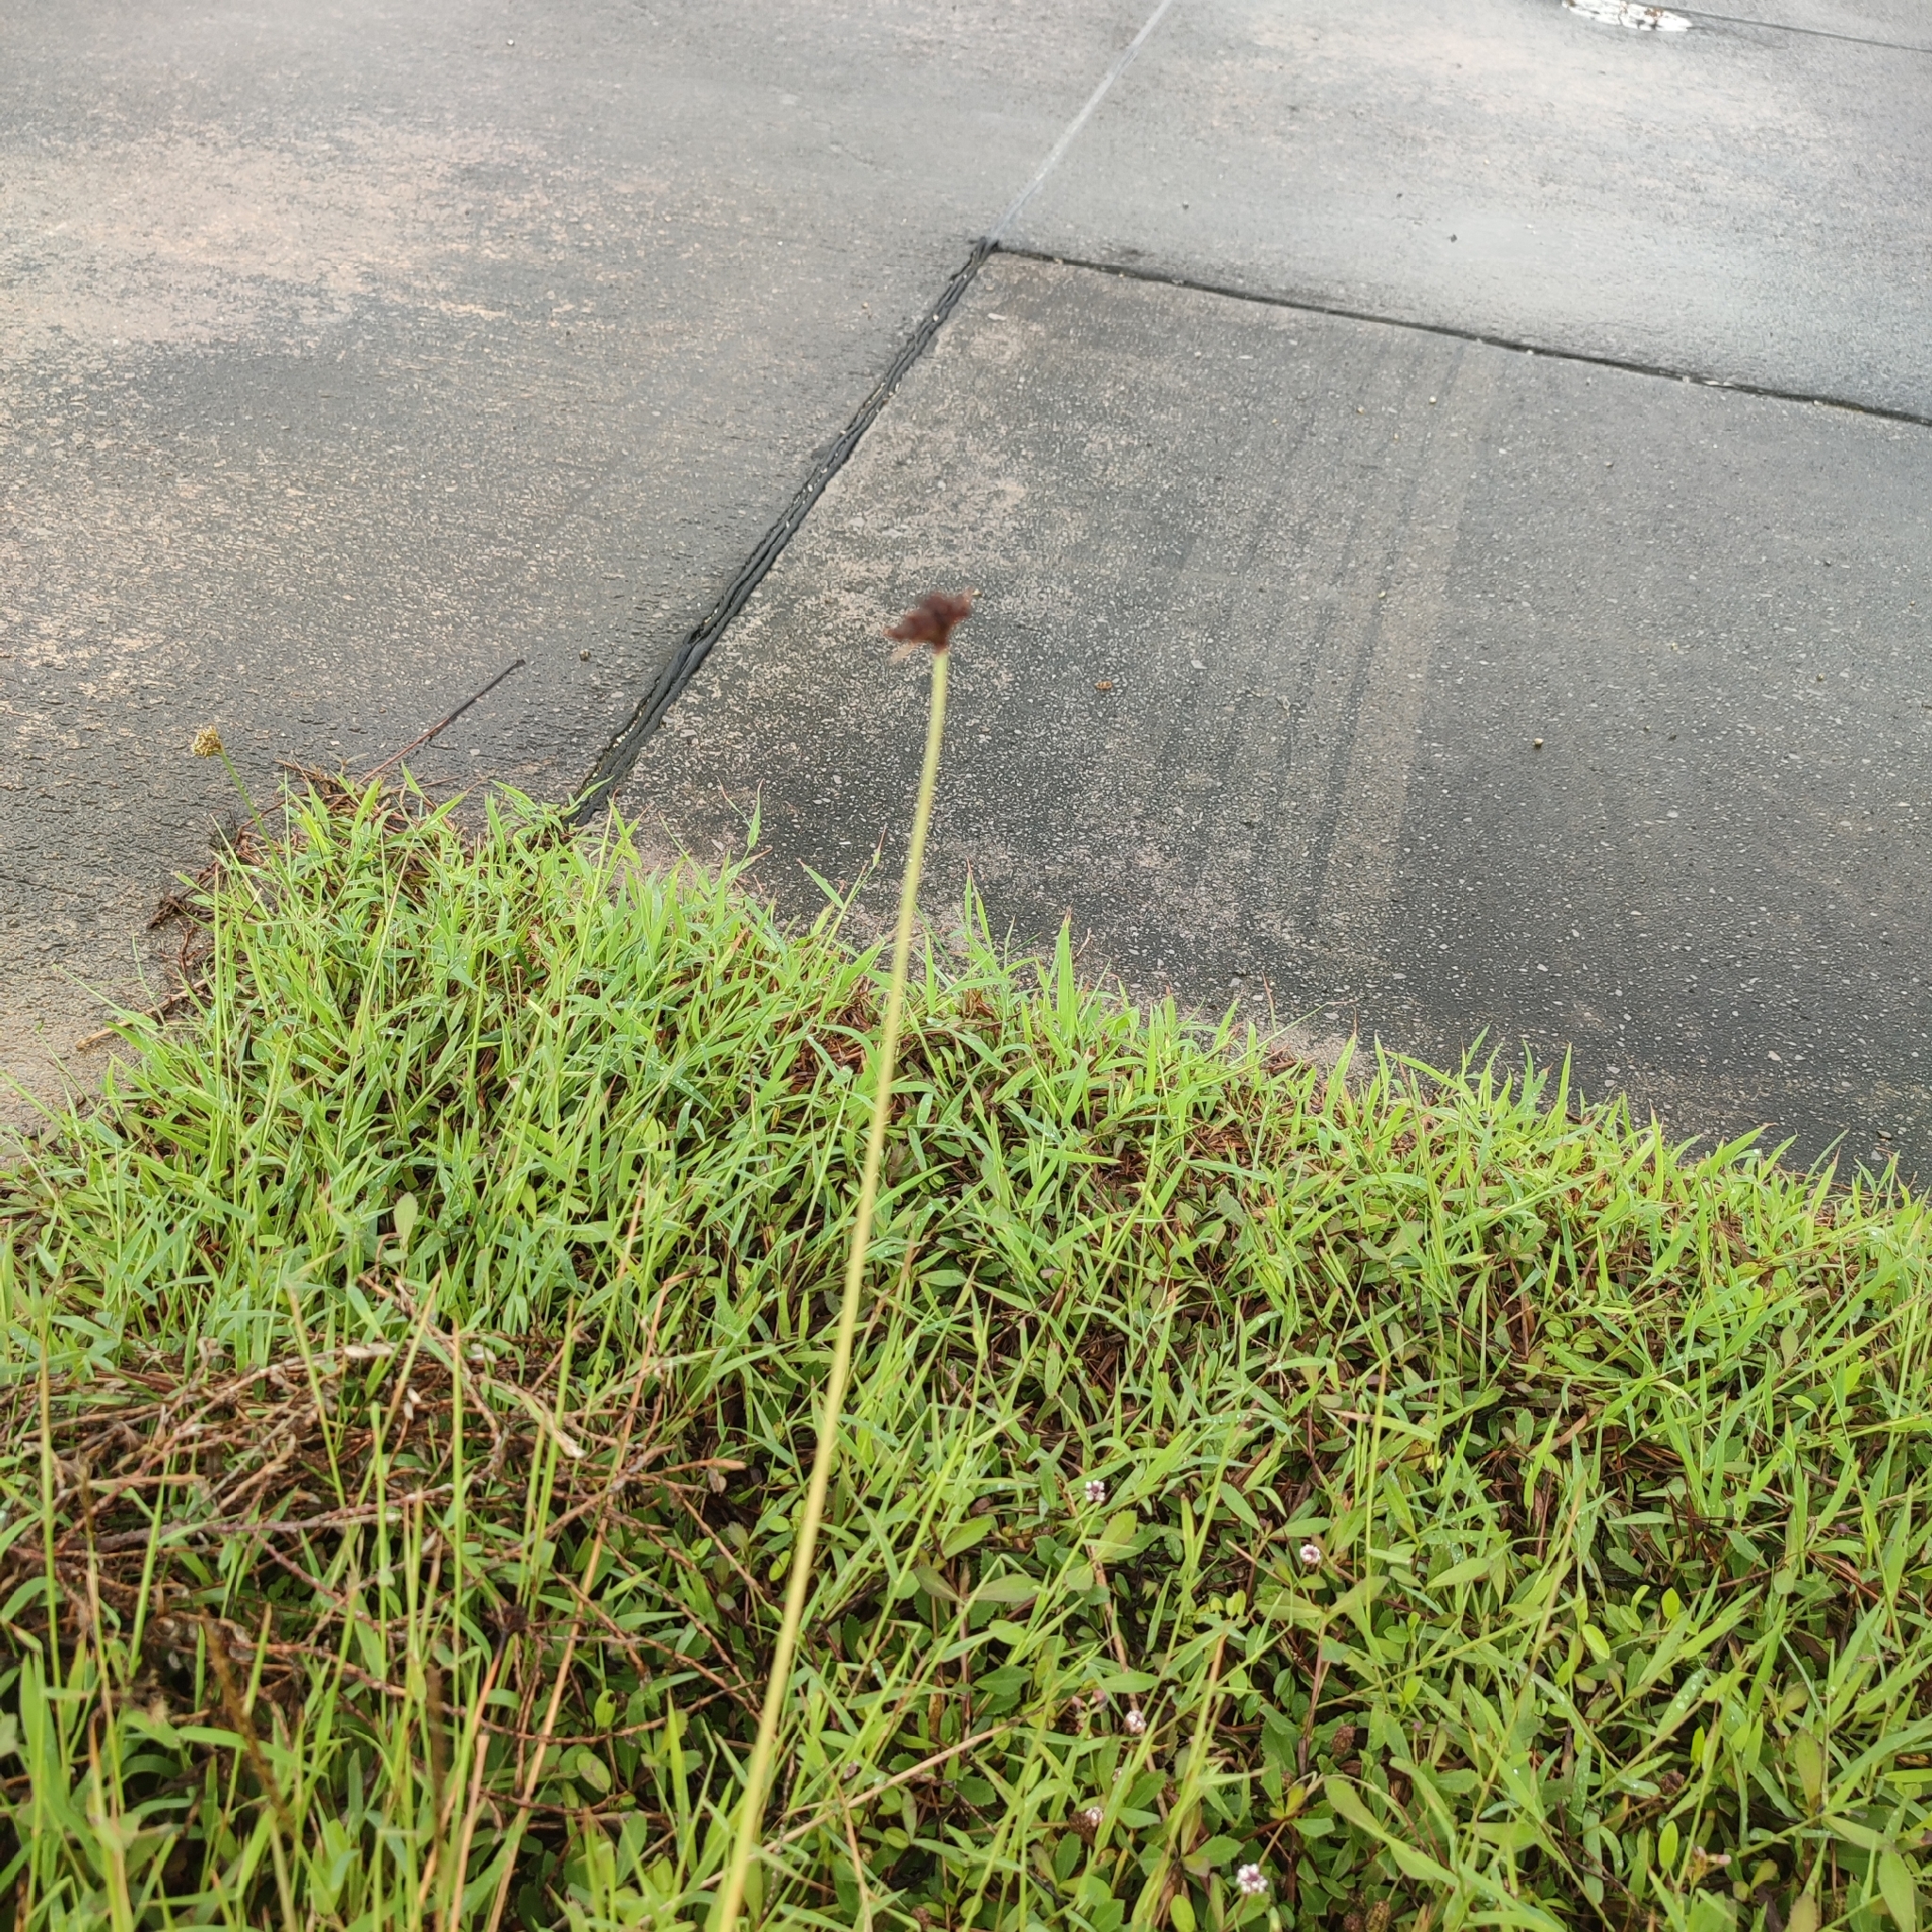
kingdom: Plantae
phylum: Tracheophyta
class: Liliopsida
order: Poales
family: Cyperaceae
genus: Fimbristylis
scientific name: Fimbristylis cymosa
